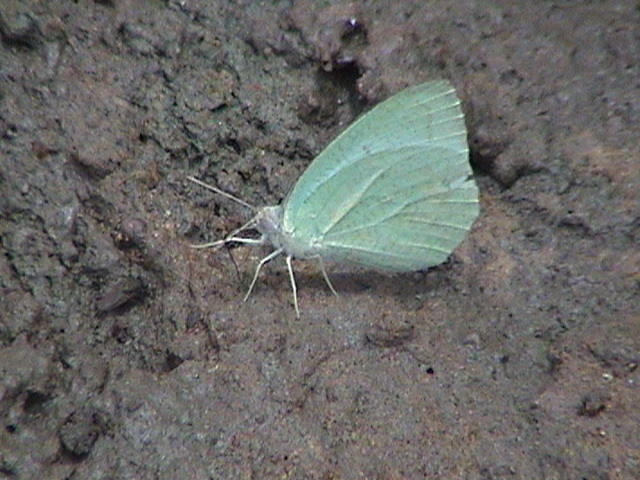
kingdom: Animalia
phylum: Arthropoda
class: Insecta
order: Lepidoptera
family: Pieridae
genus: Catopsilia
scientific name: Catopsilia pyranthe
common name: Mottled emigrant
